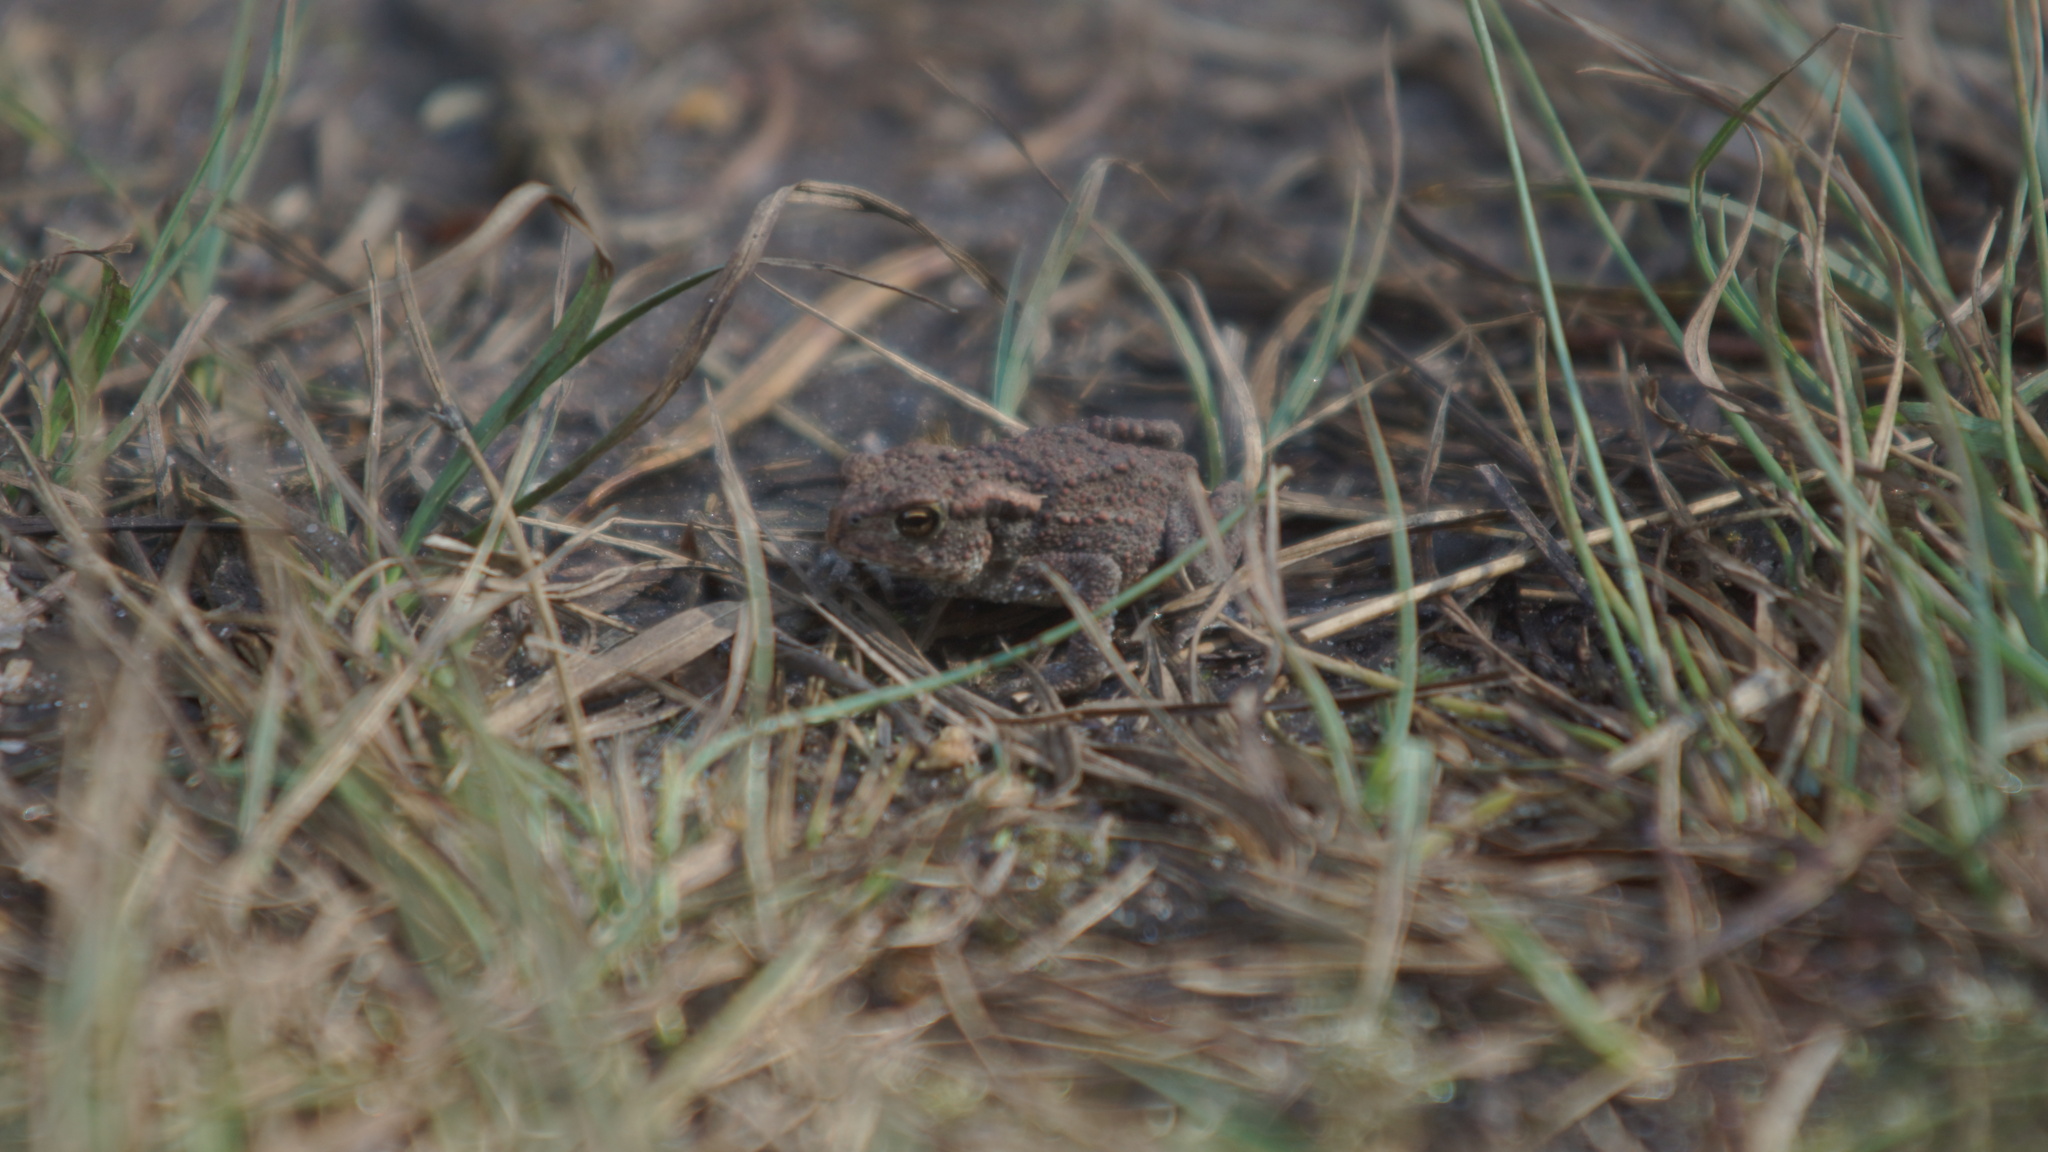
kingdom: Animalia
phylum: Chordata
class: Amphibia
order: Anura
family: Bufonidae
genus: Bufo
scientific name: Bufo bufo
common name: Common toad
